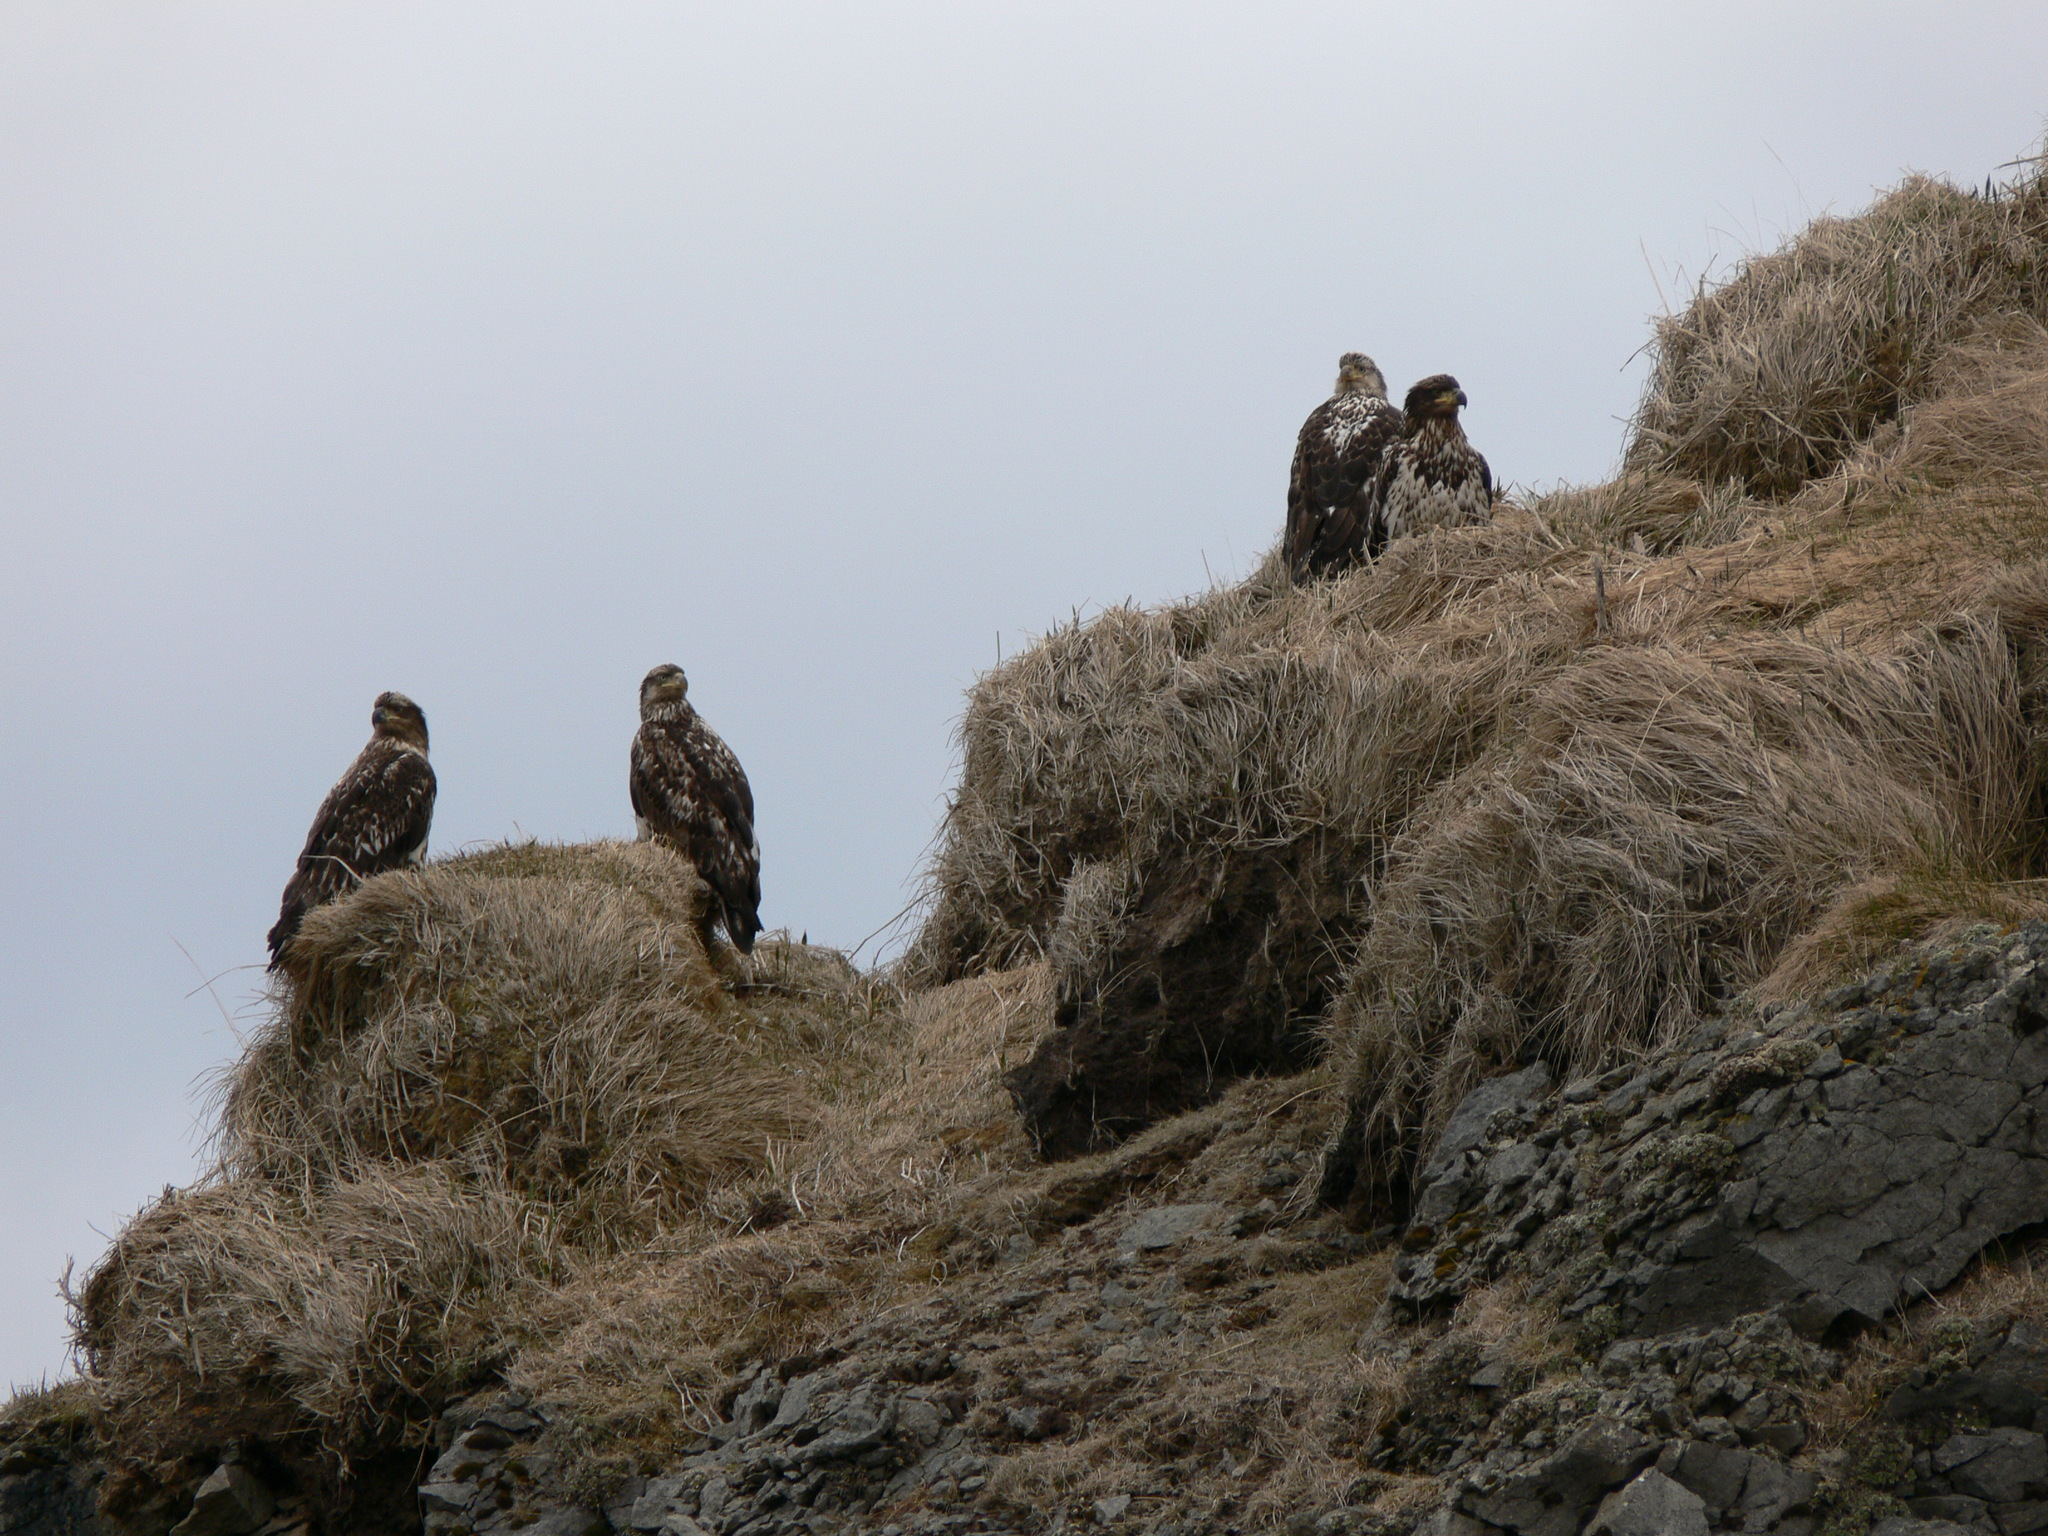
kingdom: Animalia
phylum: Chordata
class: Aves
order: Accipitriformes
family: Accipitridae
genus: Haliaeetus
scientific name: Haliaeetus leucocephalus
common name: Bald eagle
